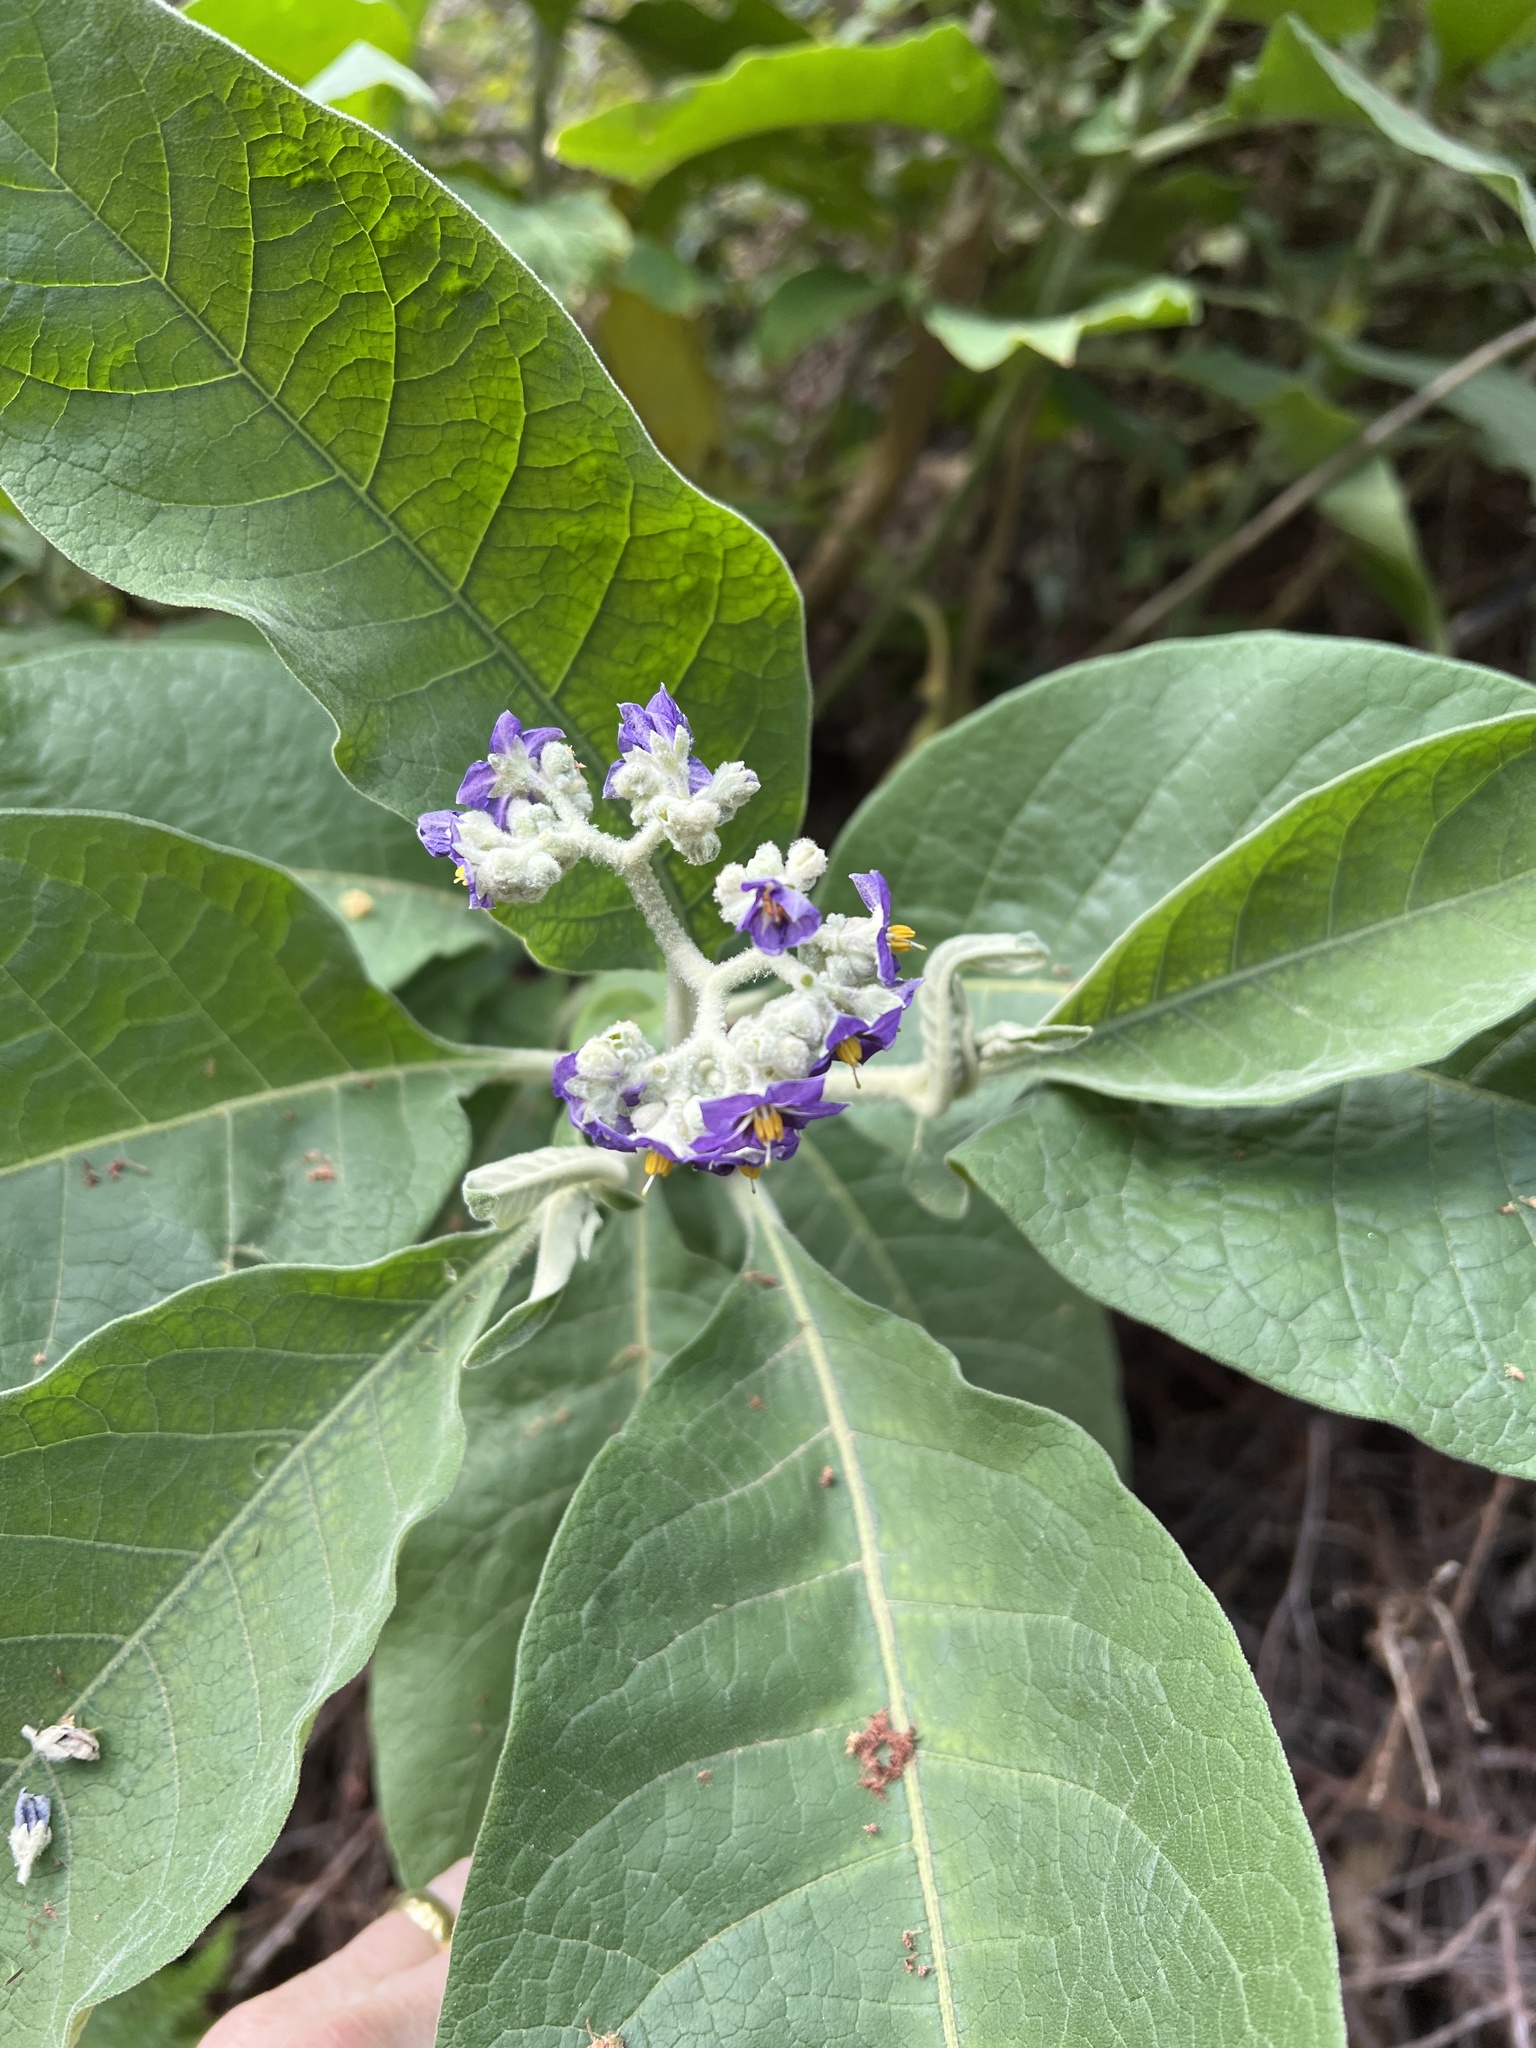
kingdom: Plantae
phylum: Tracheophyta
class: Magnoliopsida
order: Solanales
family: Solanaceae
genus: Solanum
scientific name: Solanum mauritianum
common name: Earleaf nightshade
